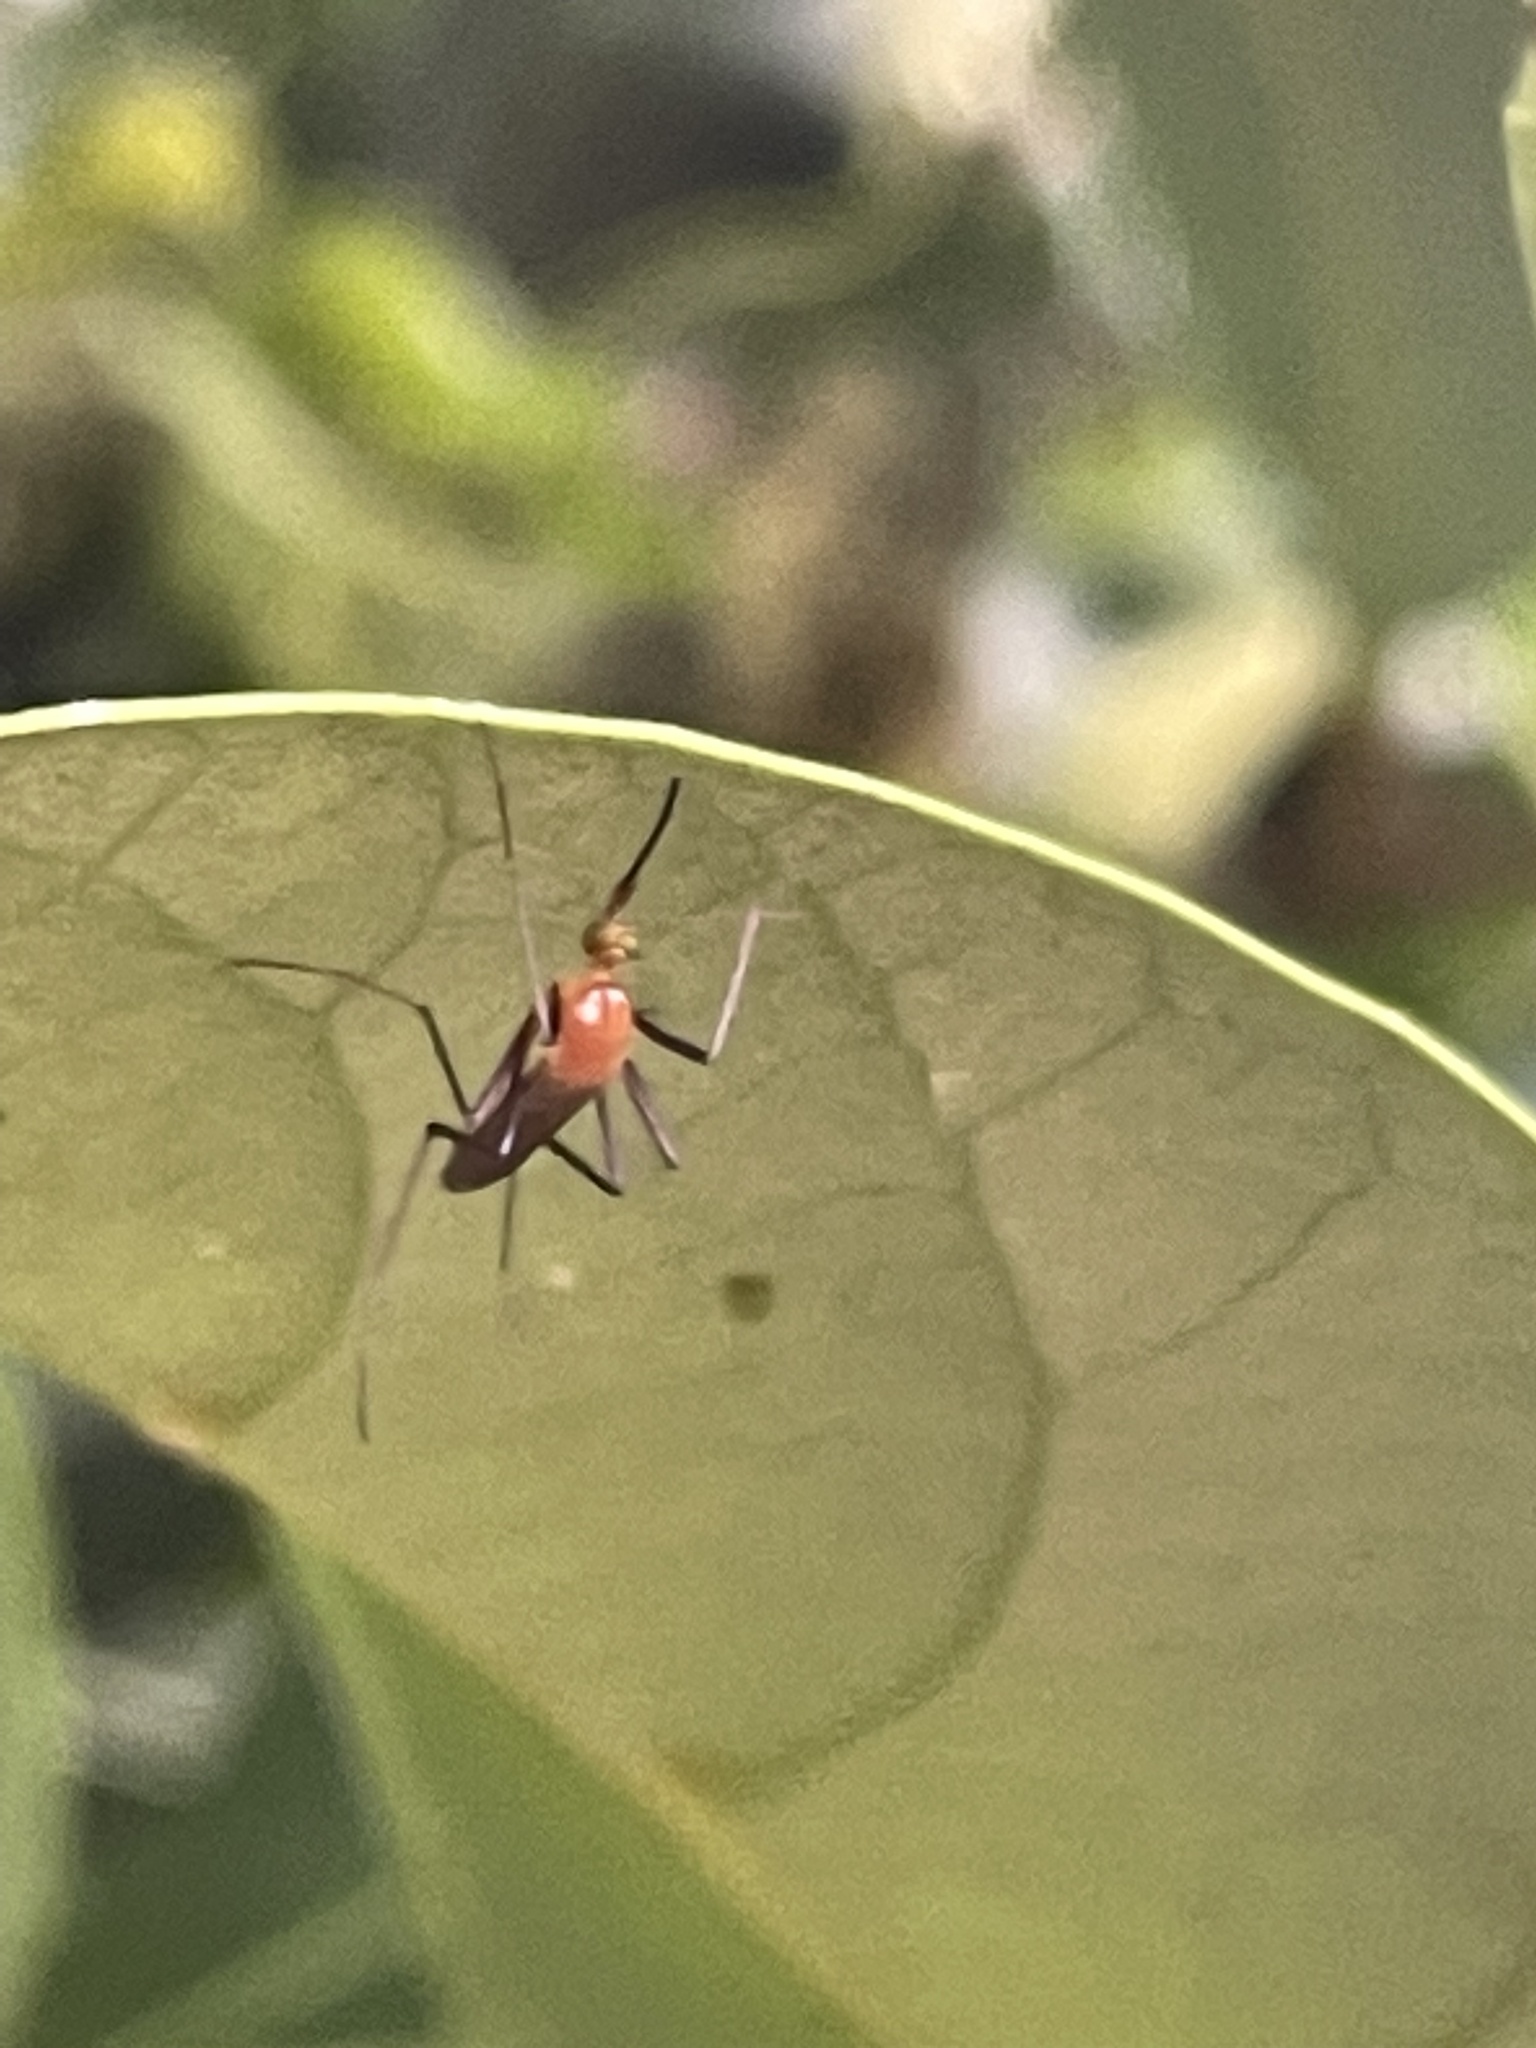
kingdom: Animalia
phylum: Arthropoda
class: Insecta
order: Diptera
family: Culicidae
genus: Coquillettidia
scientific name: Coquillettidia xanthogaster
